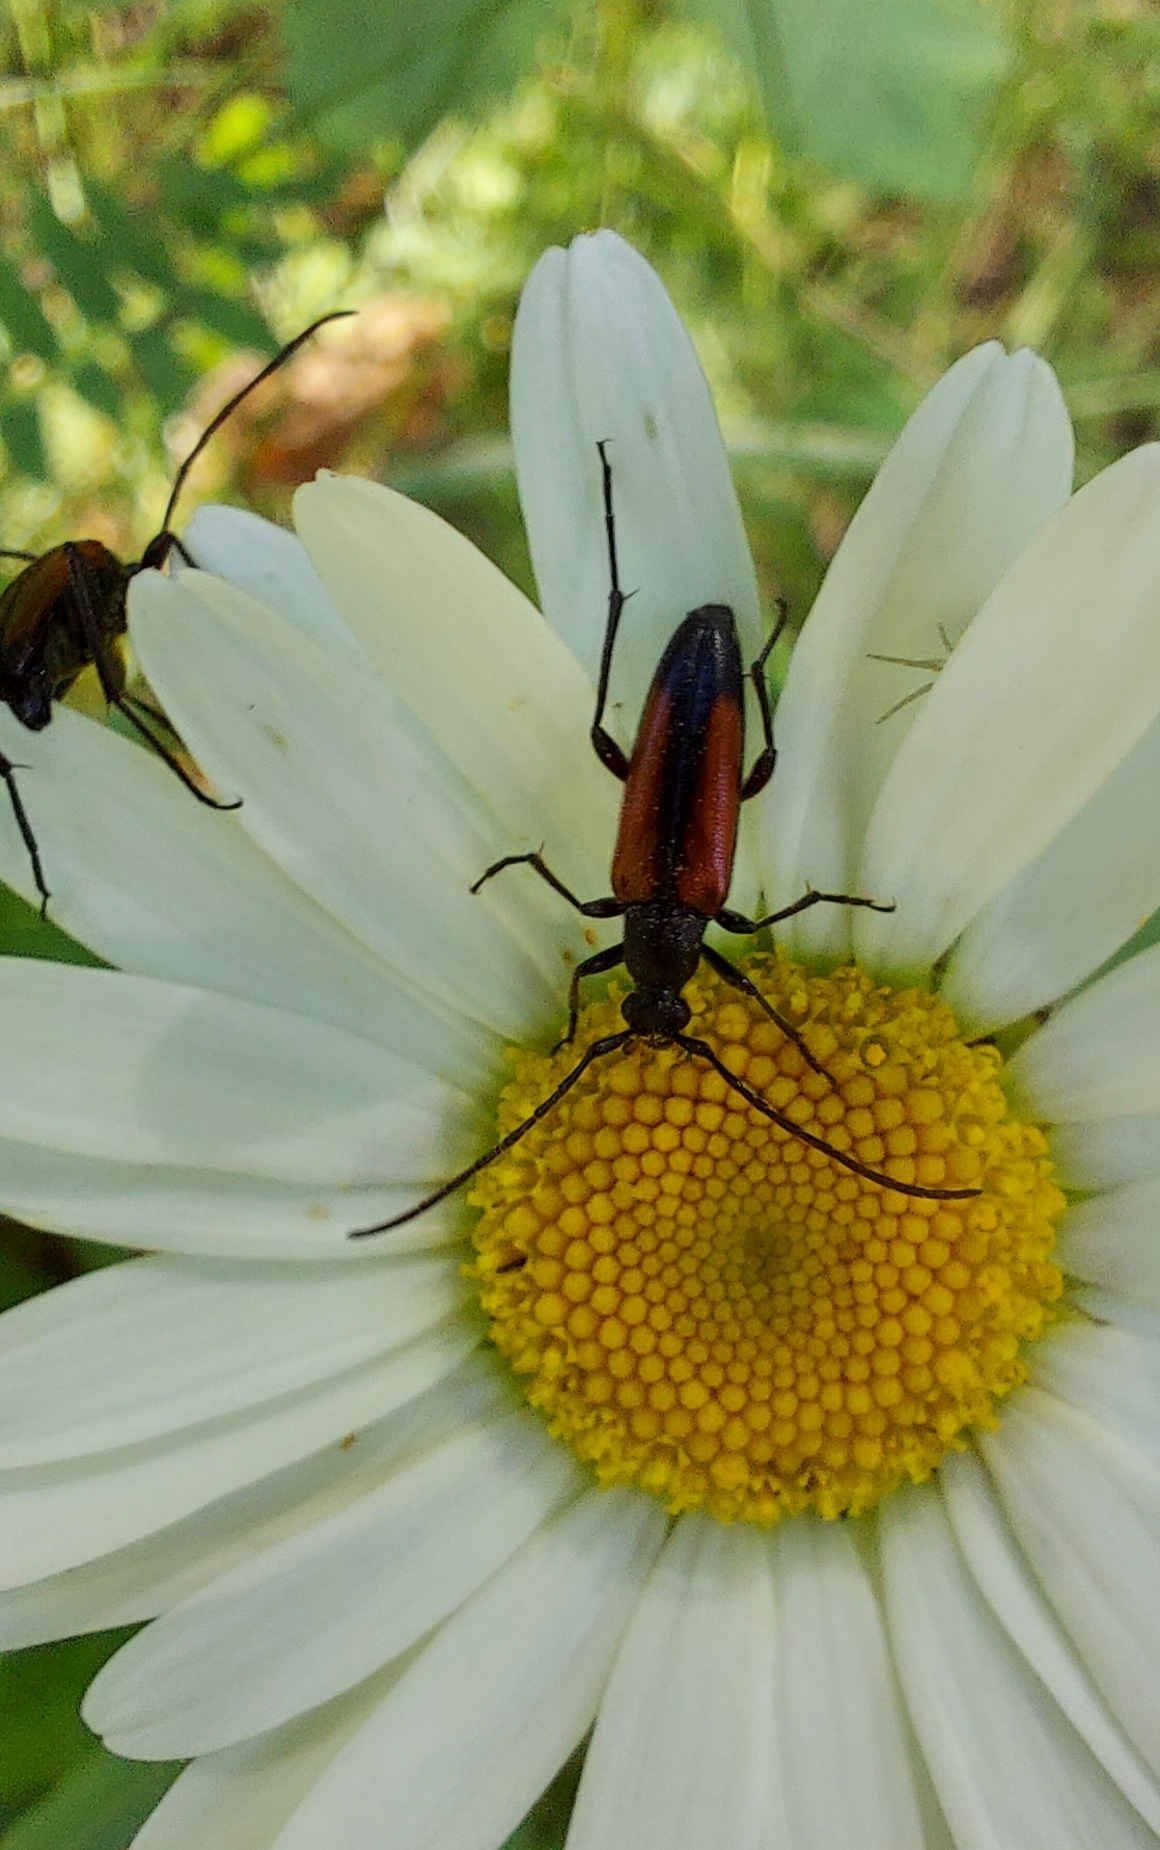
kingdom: Animalia
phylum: Arthropoda
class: Insecta
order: Coleoptera
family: Cerambycidae
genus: Stenurella
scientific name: Stenurella melanura
